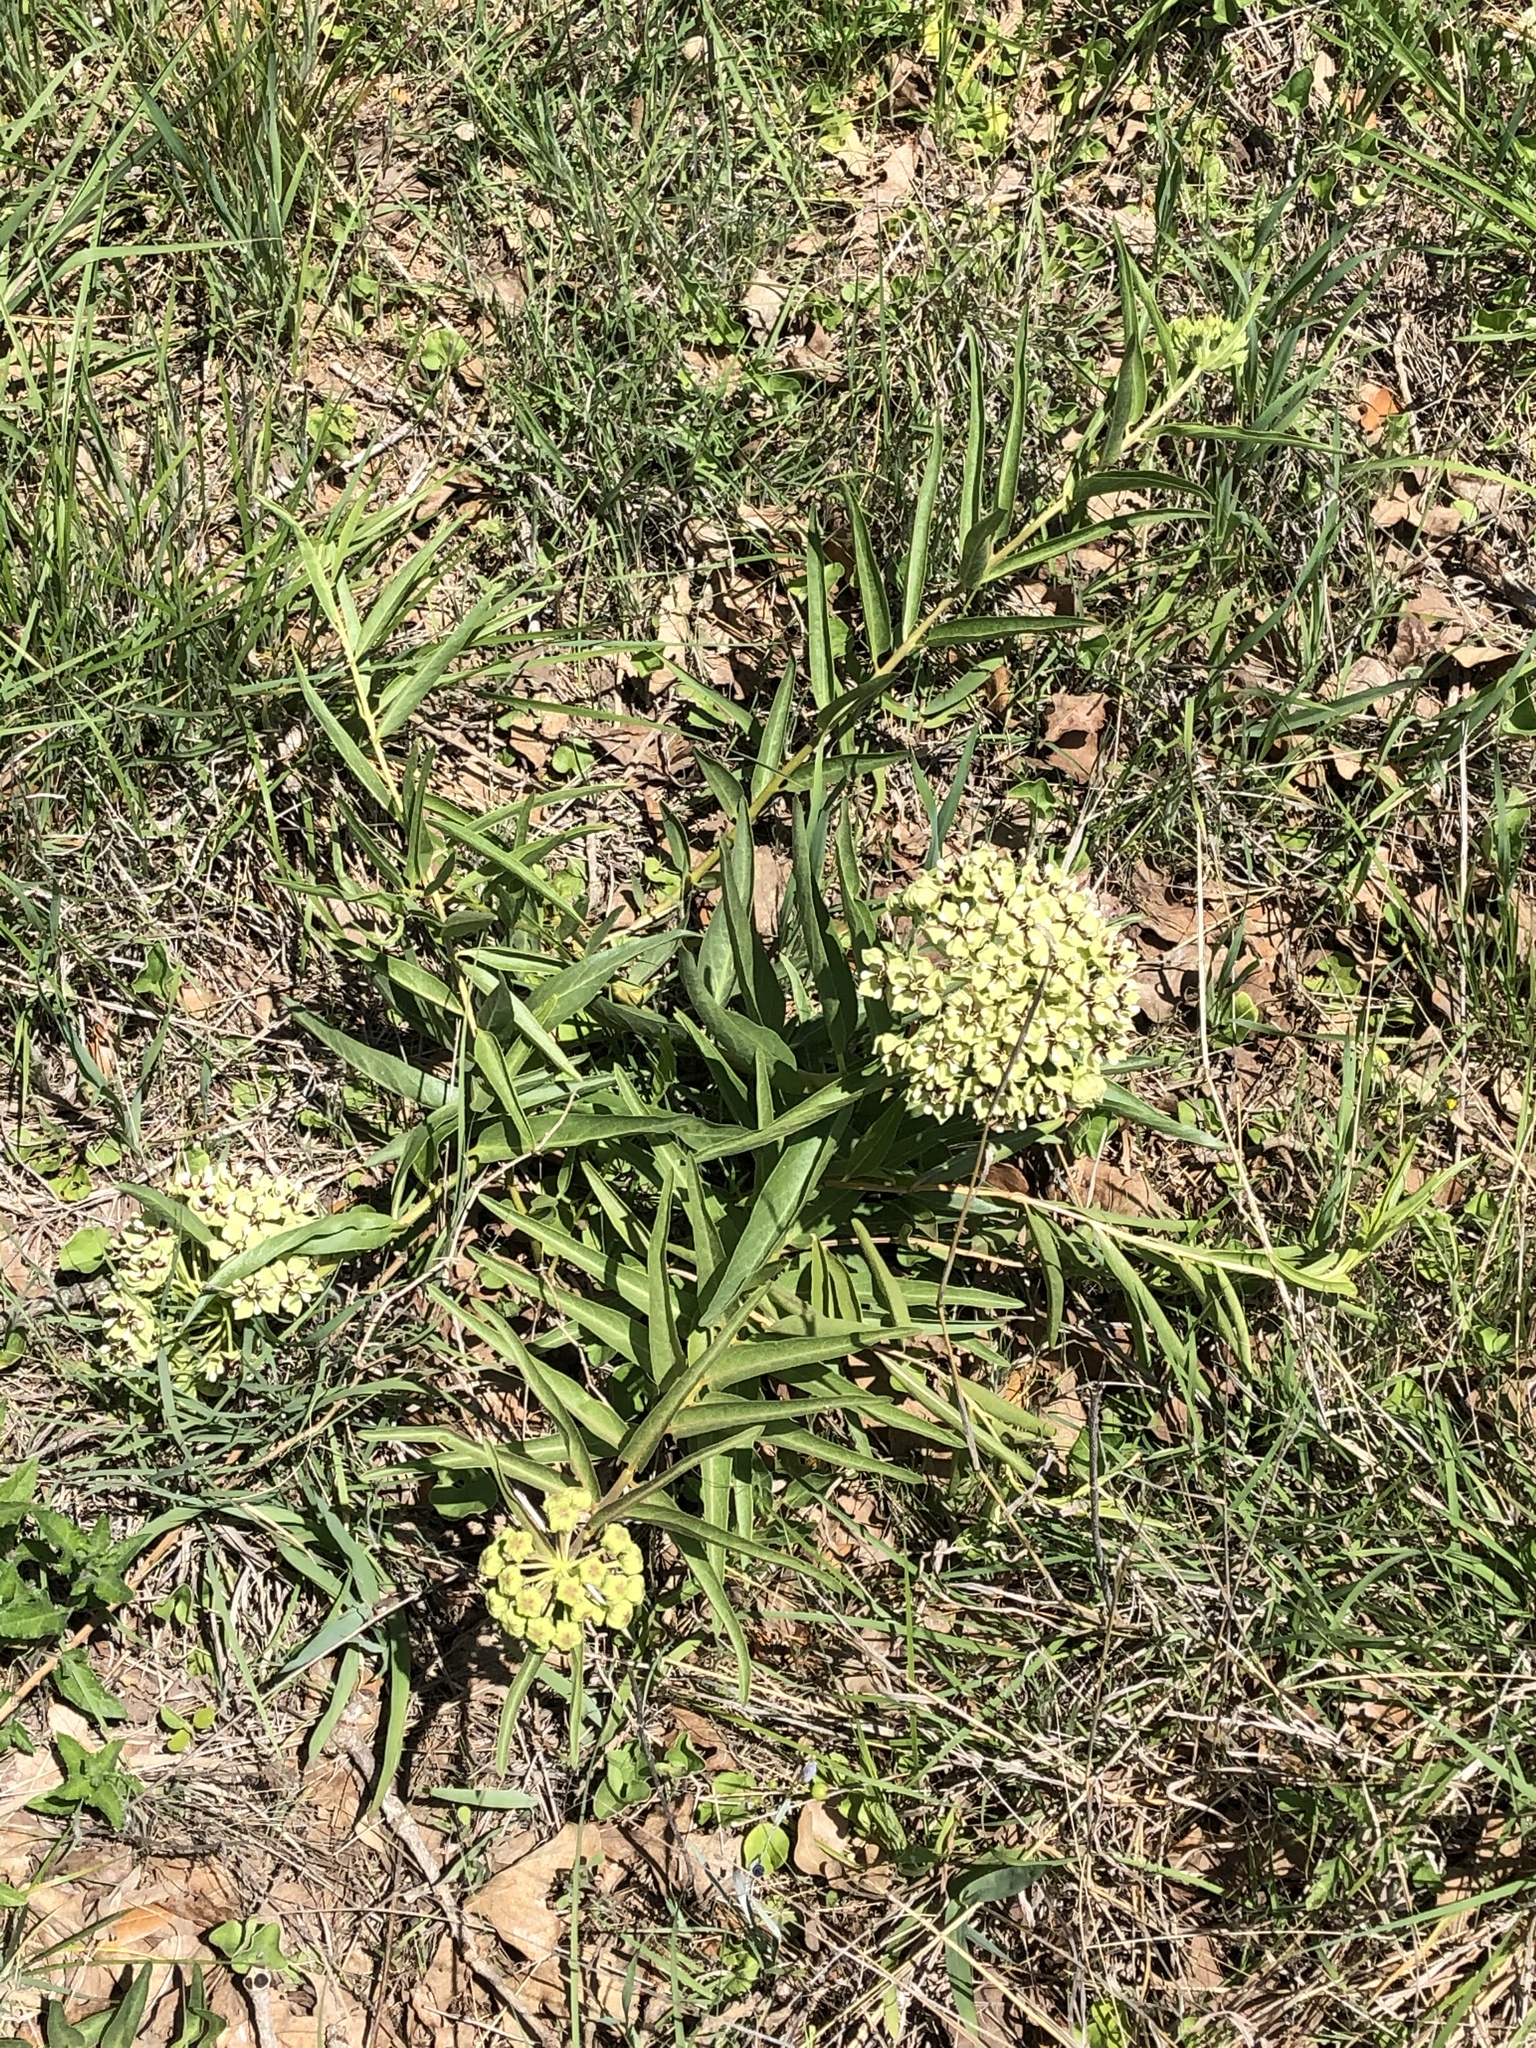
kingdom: Plantae
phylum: Tracheophyta
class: Magnoliopsida
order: Gentianales
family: Apocynaceae
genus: Asclepias
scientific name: Asclepias asperula
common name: Antelope horns
